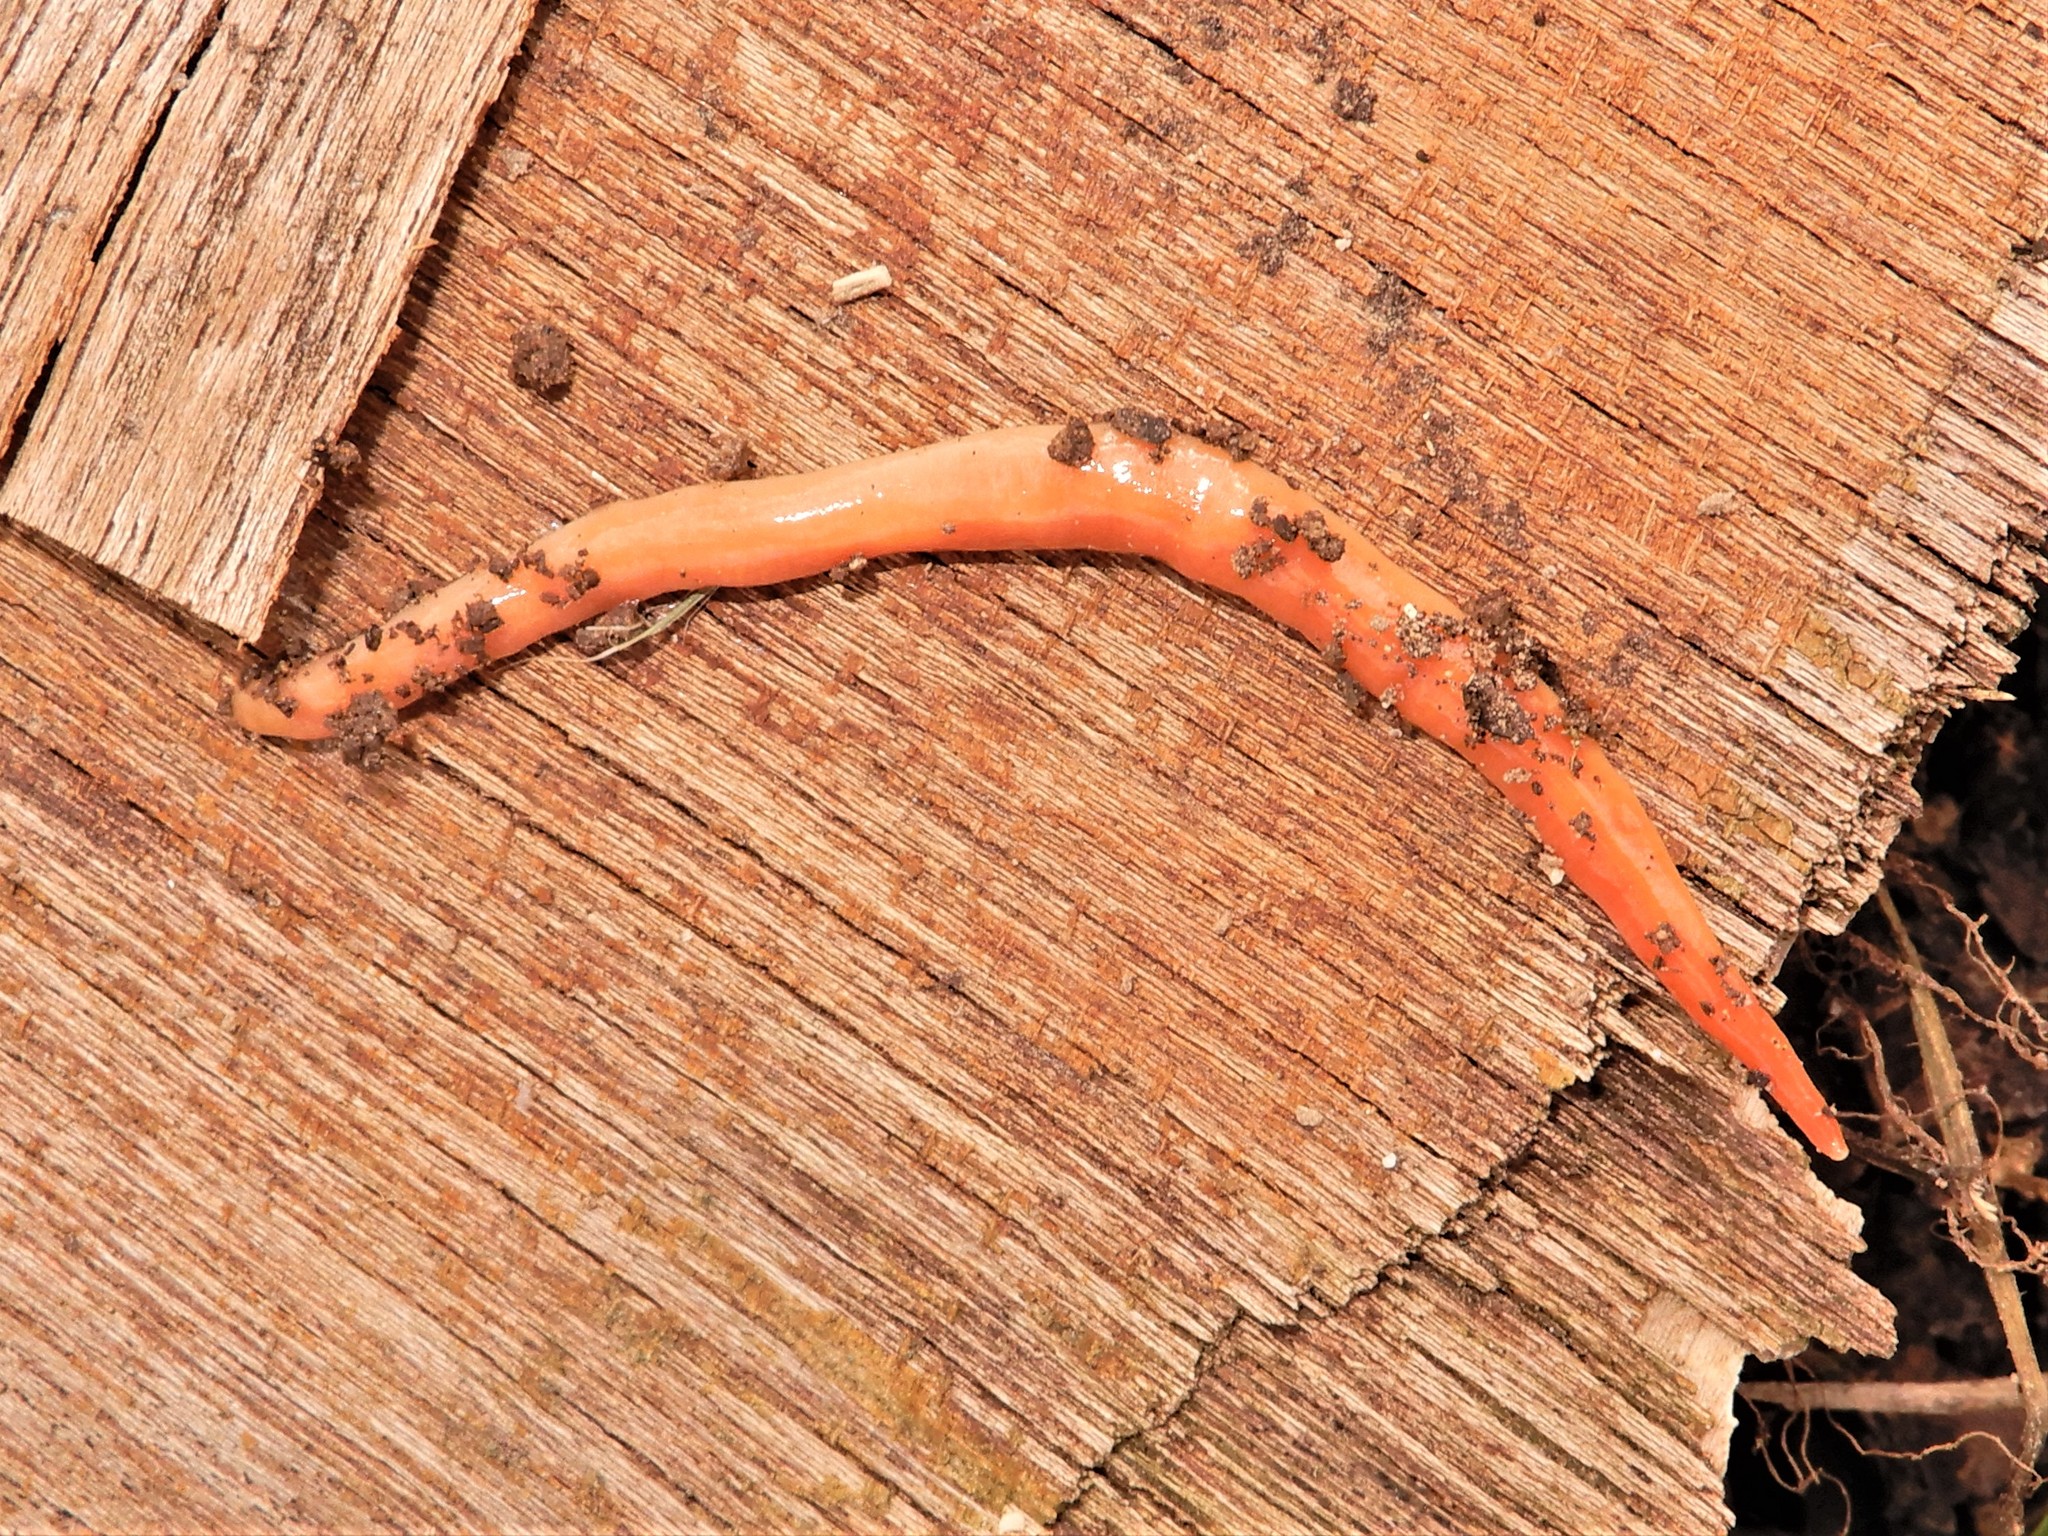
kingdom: Animalia
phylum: Platyhelminthes
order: Tricladida
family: Geoplanidae
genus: Australoplana
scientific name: Australoplana sanguinea
